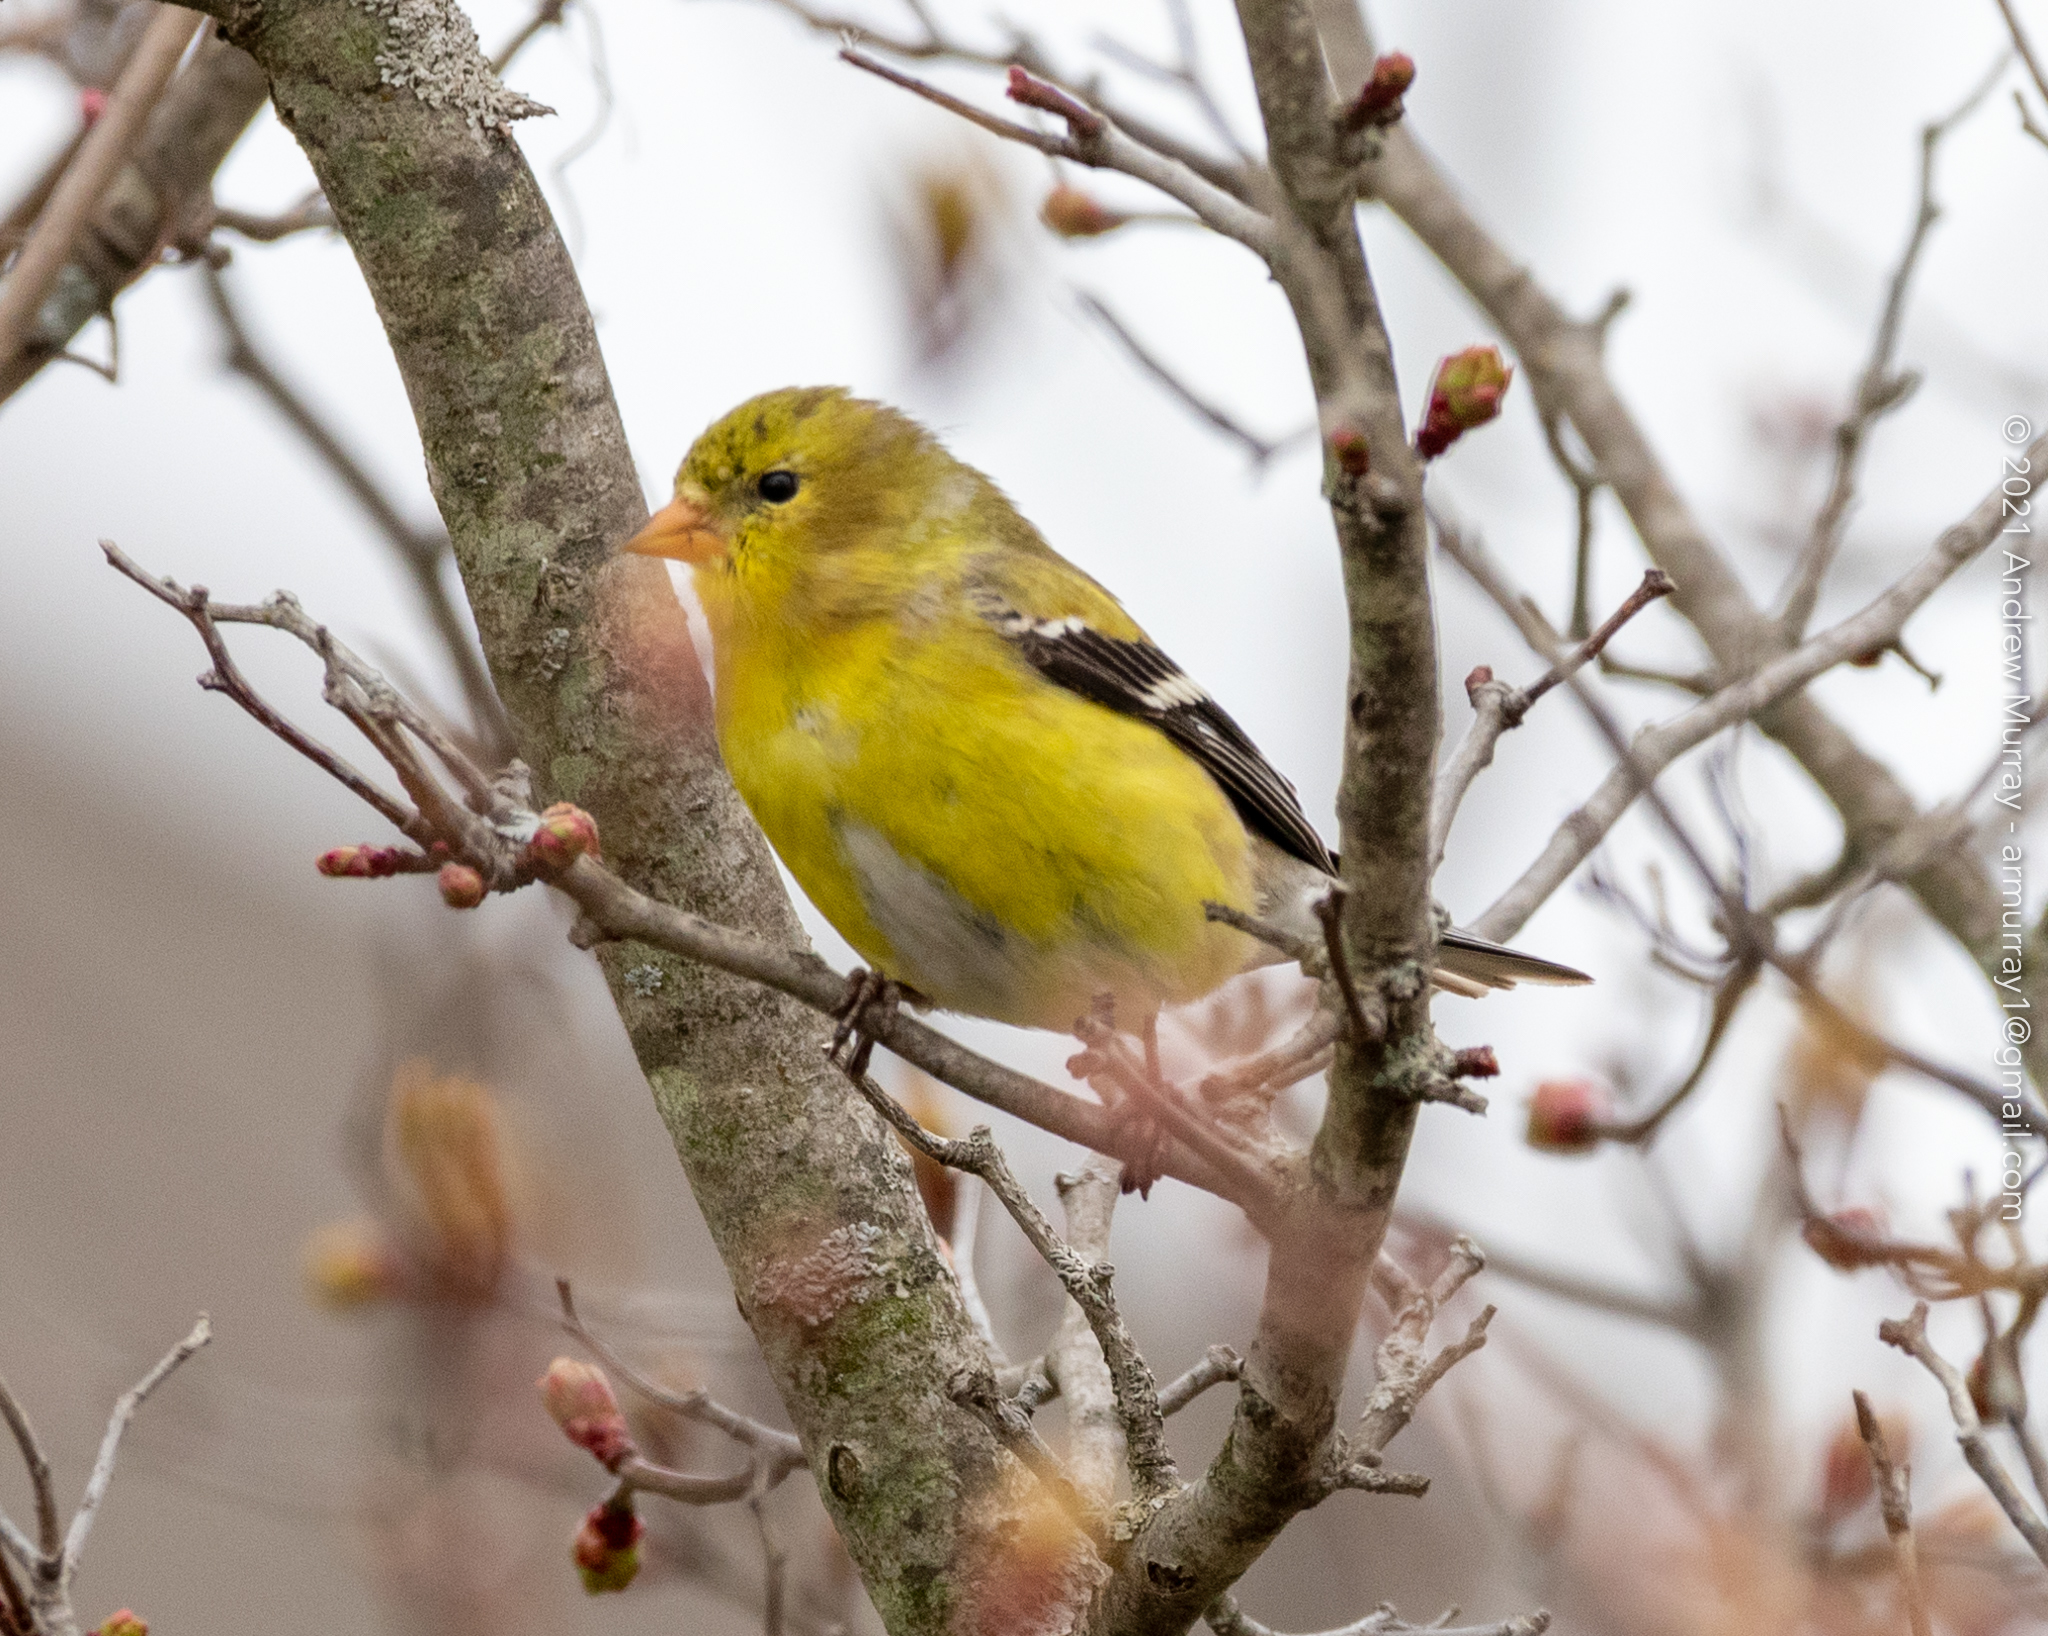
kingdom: Animalia
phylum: Chordata
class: Aves
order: Passeriformes
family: Fringillidae
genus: Spinus
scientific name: Spinus tristis
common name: American goldfinch
